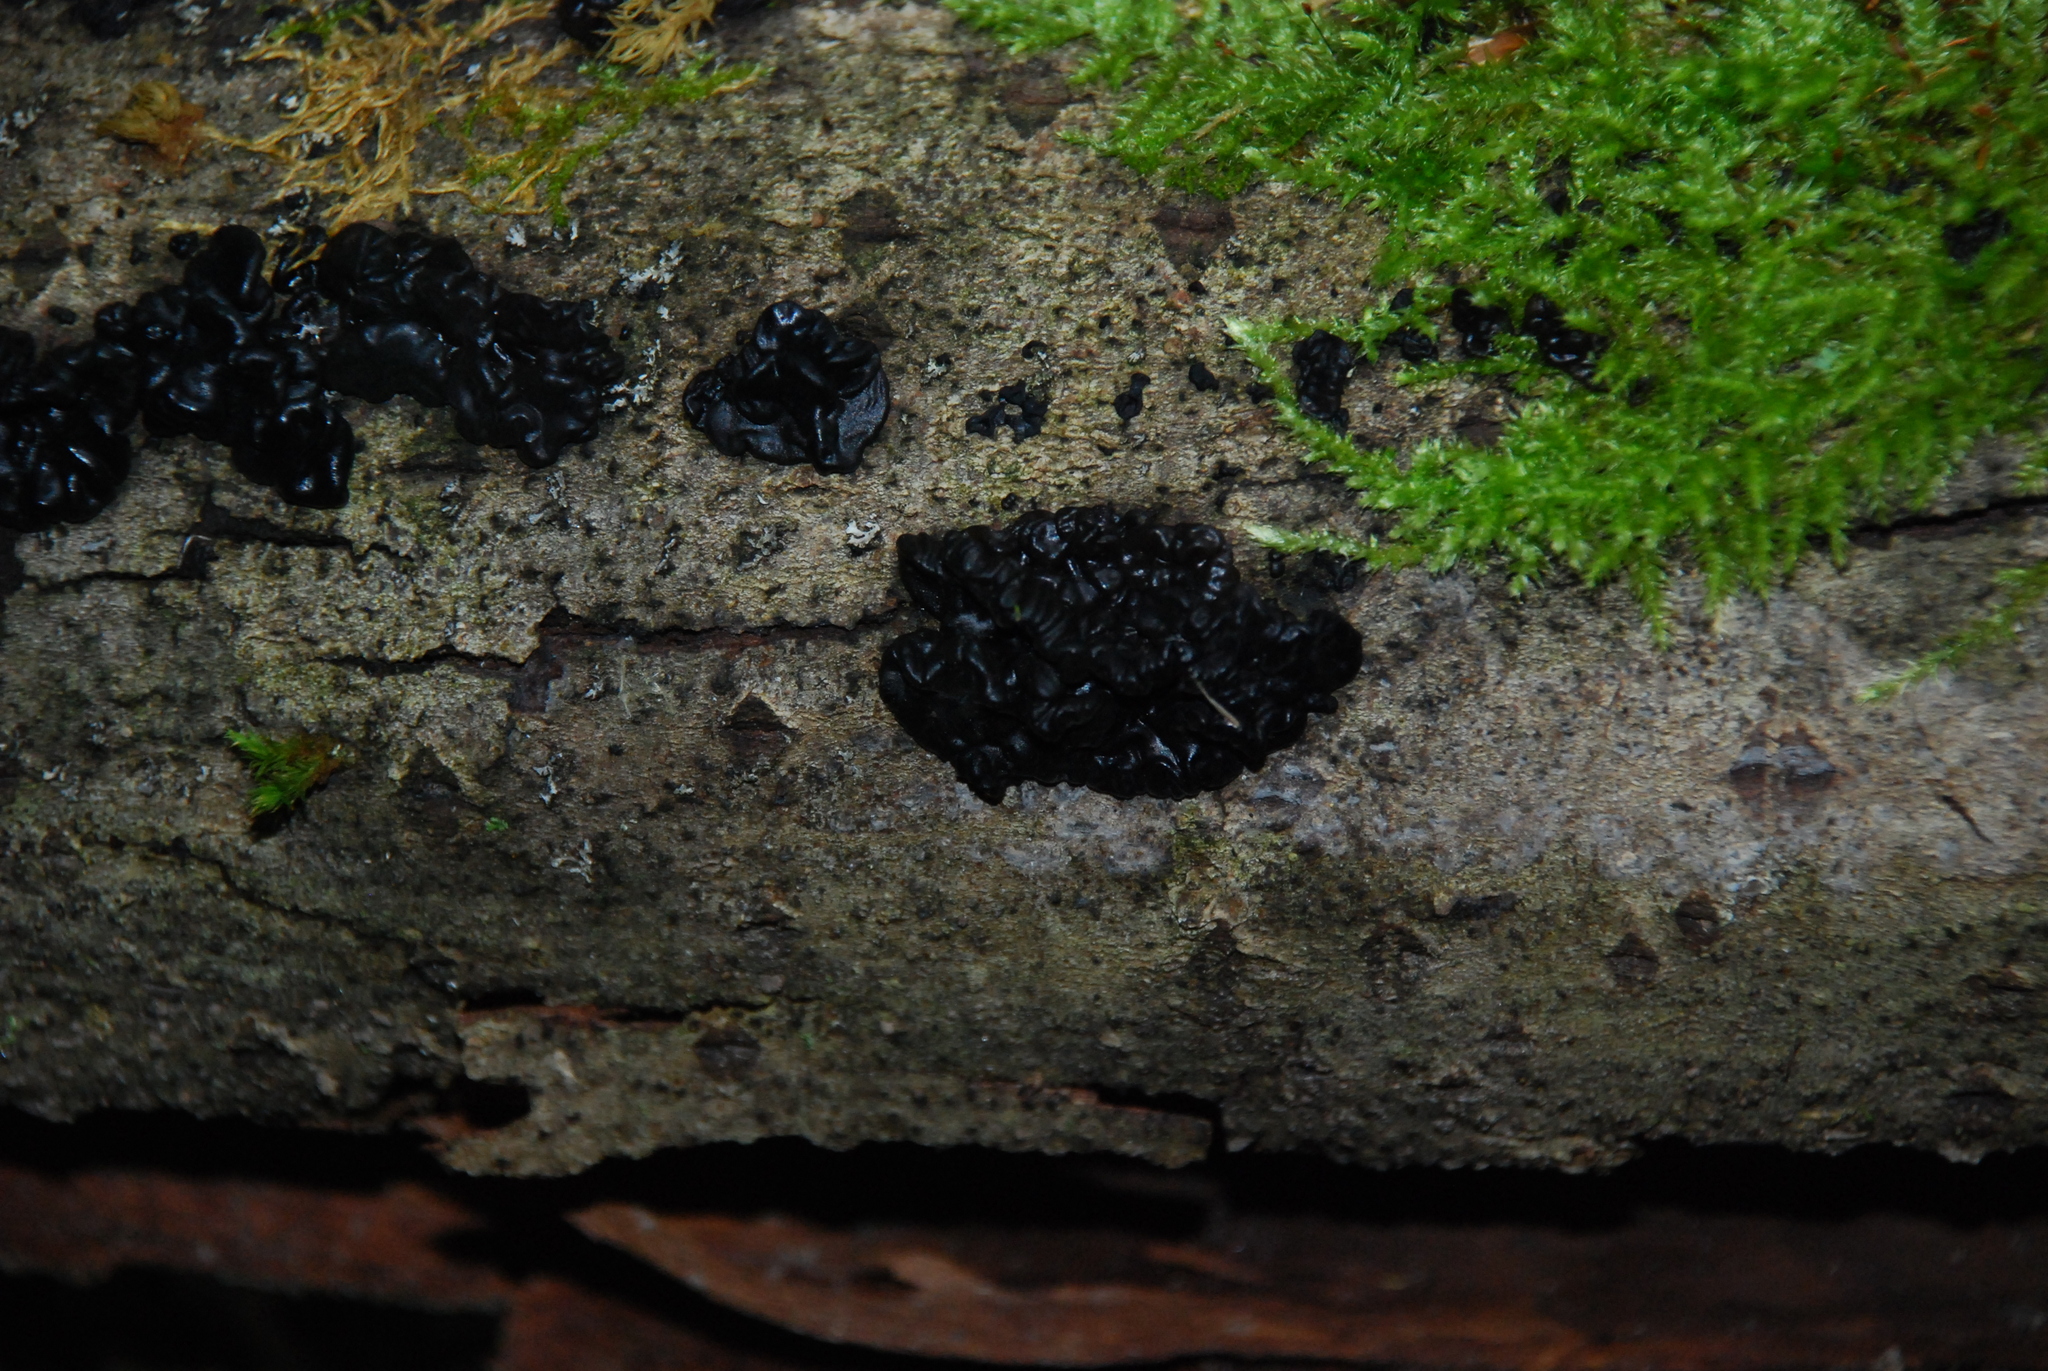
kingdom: Fungi
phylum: Basidiomycota
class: Agaricomycetes
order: Auriculariales
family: Auriculariaceae
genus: Exidia
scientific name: Exidia nigricans
